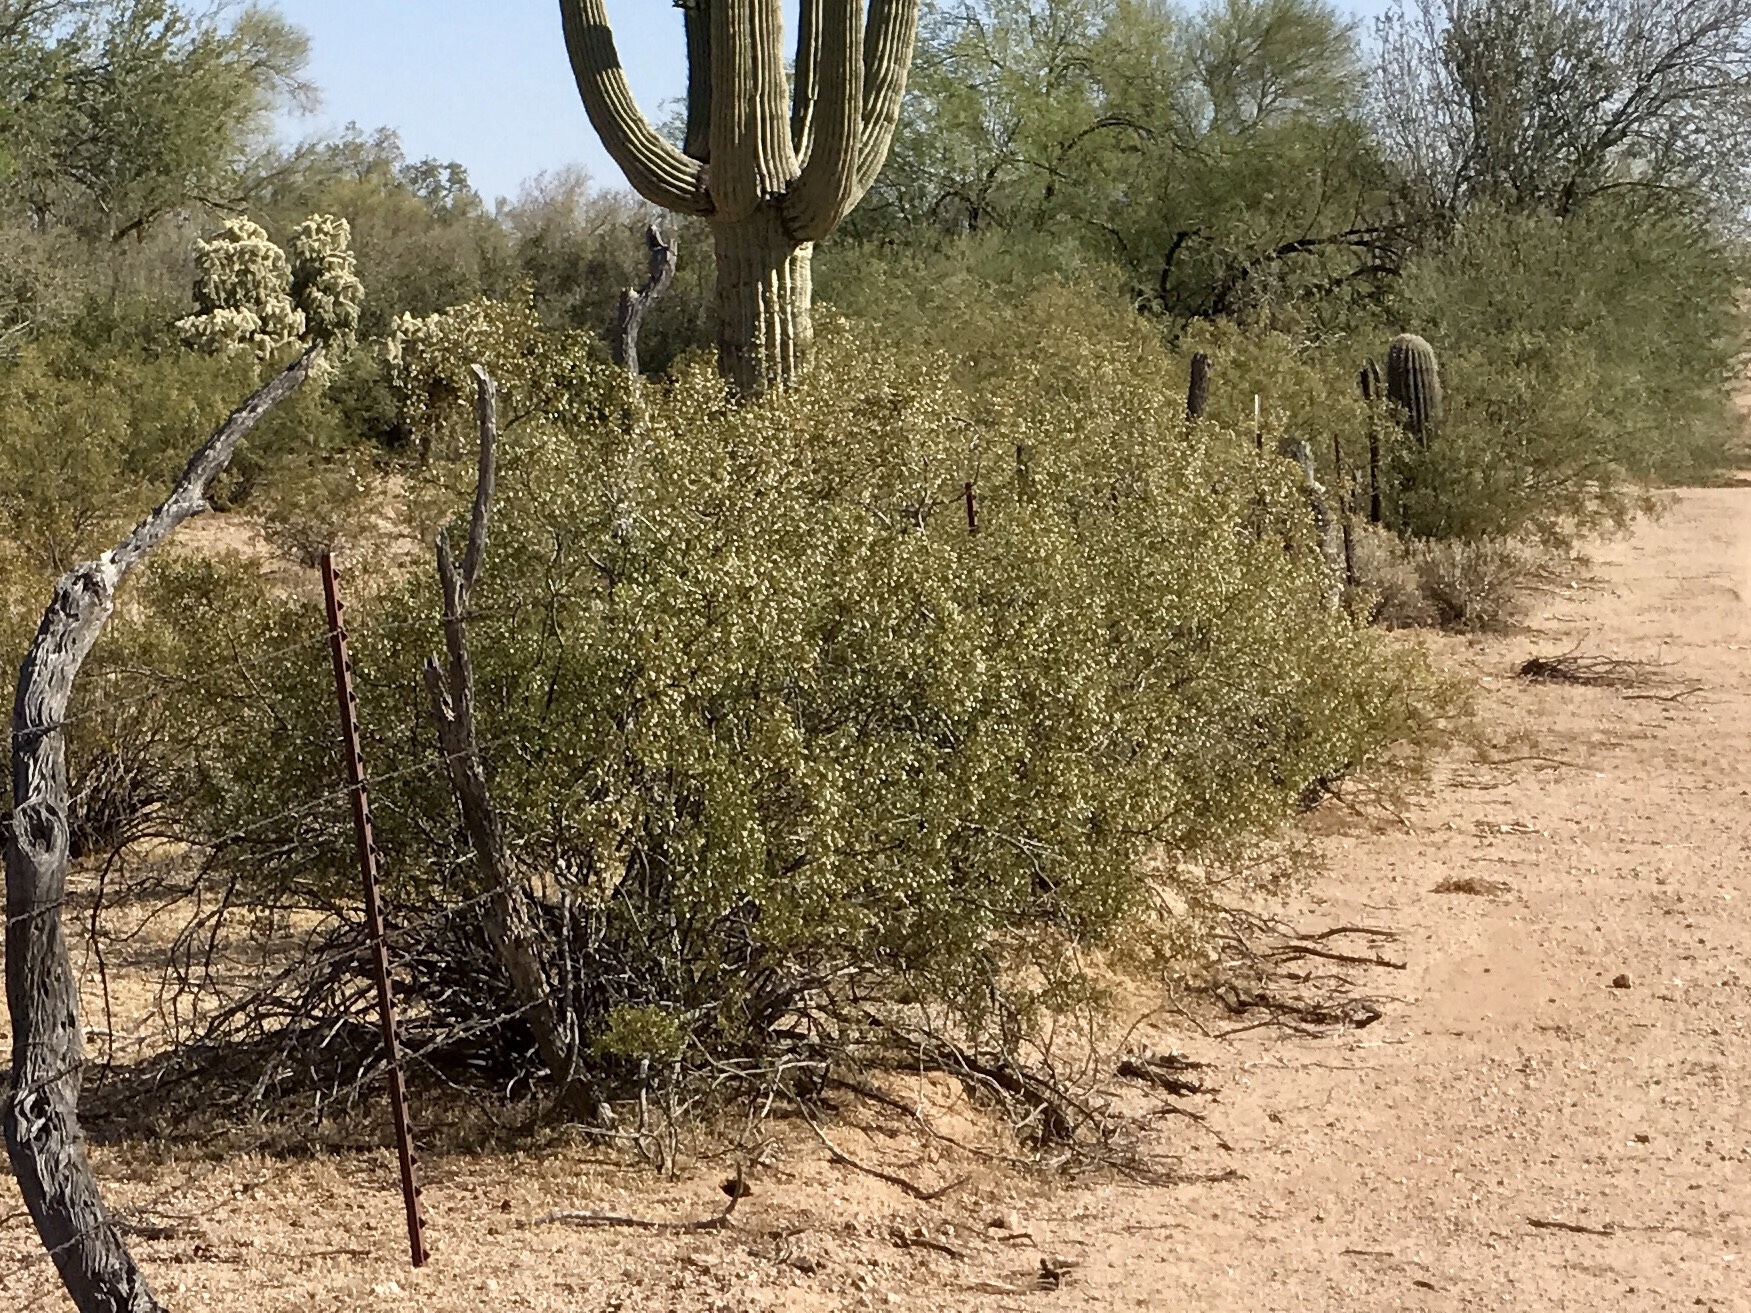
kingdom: Plantae
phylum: Tracheophyta
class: Magnoliopsida
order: Zygophyllales
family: Zygophyllaceae
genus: Larrea
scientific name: Larrea tridentata
